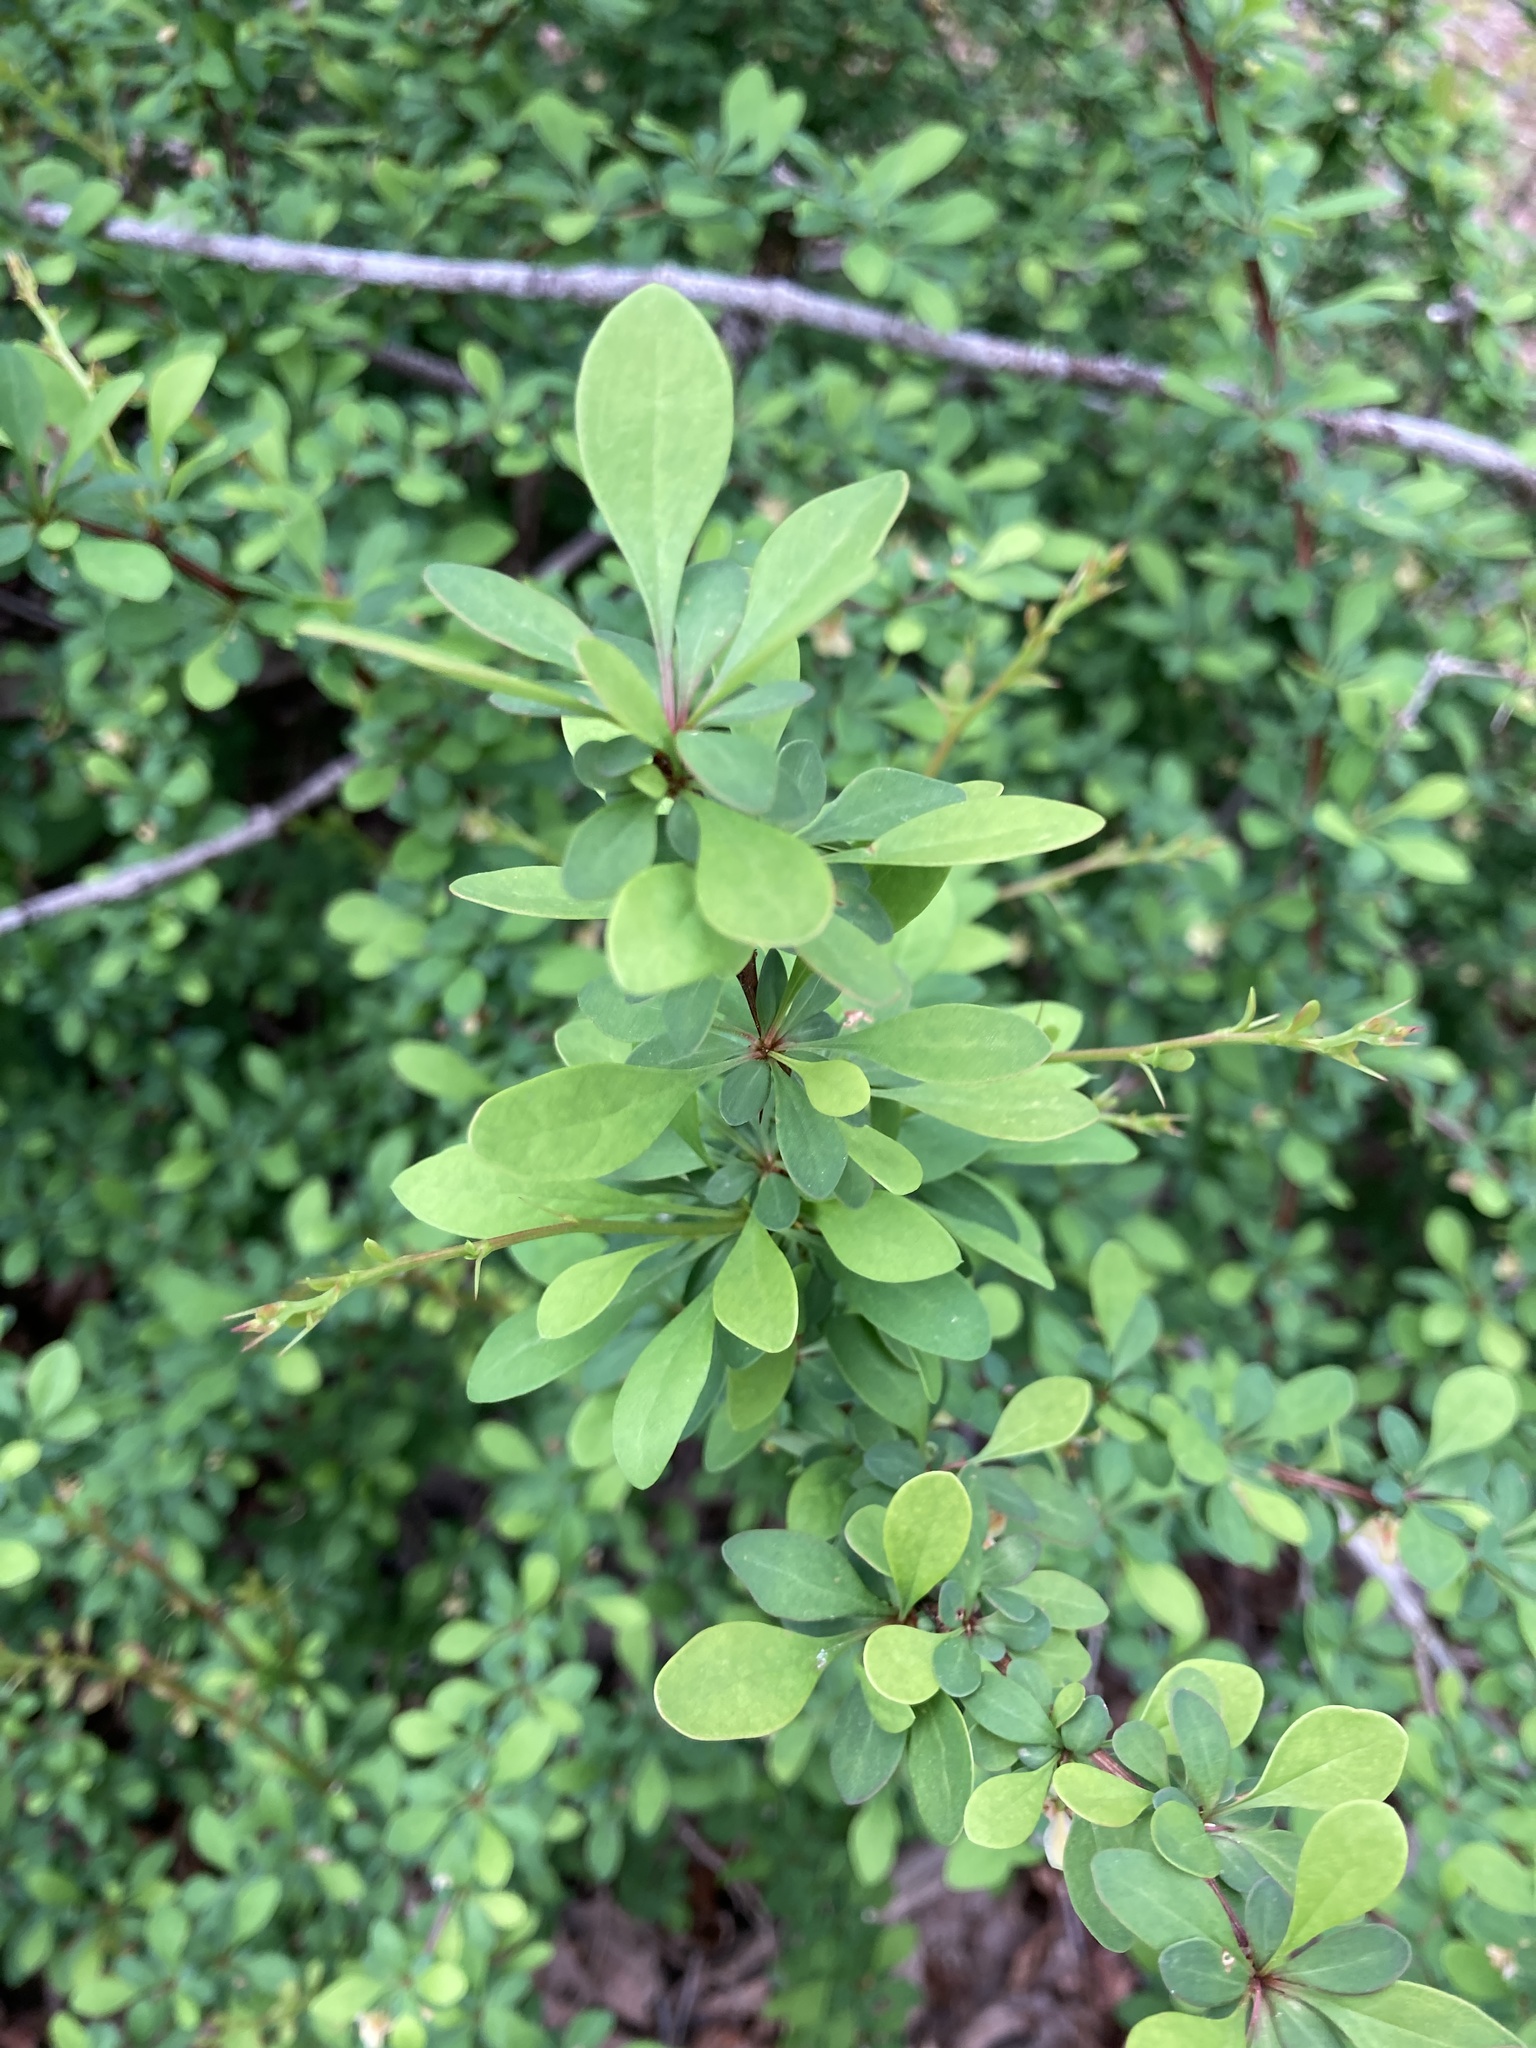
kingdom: Plantae
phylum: Tracheophyta
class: Magnoliopsida
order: Ranunculales
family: Berberidaceae
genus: Berberis
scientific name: Berberis thunbergii
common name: Japanese barberry
